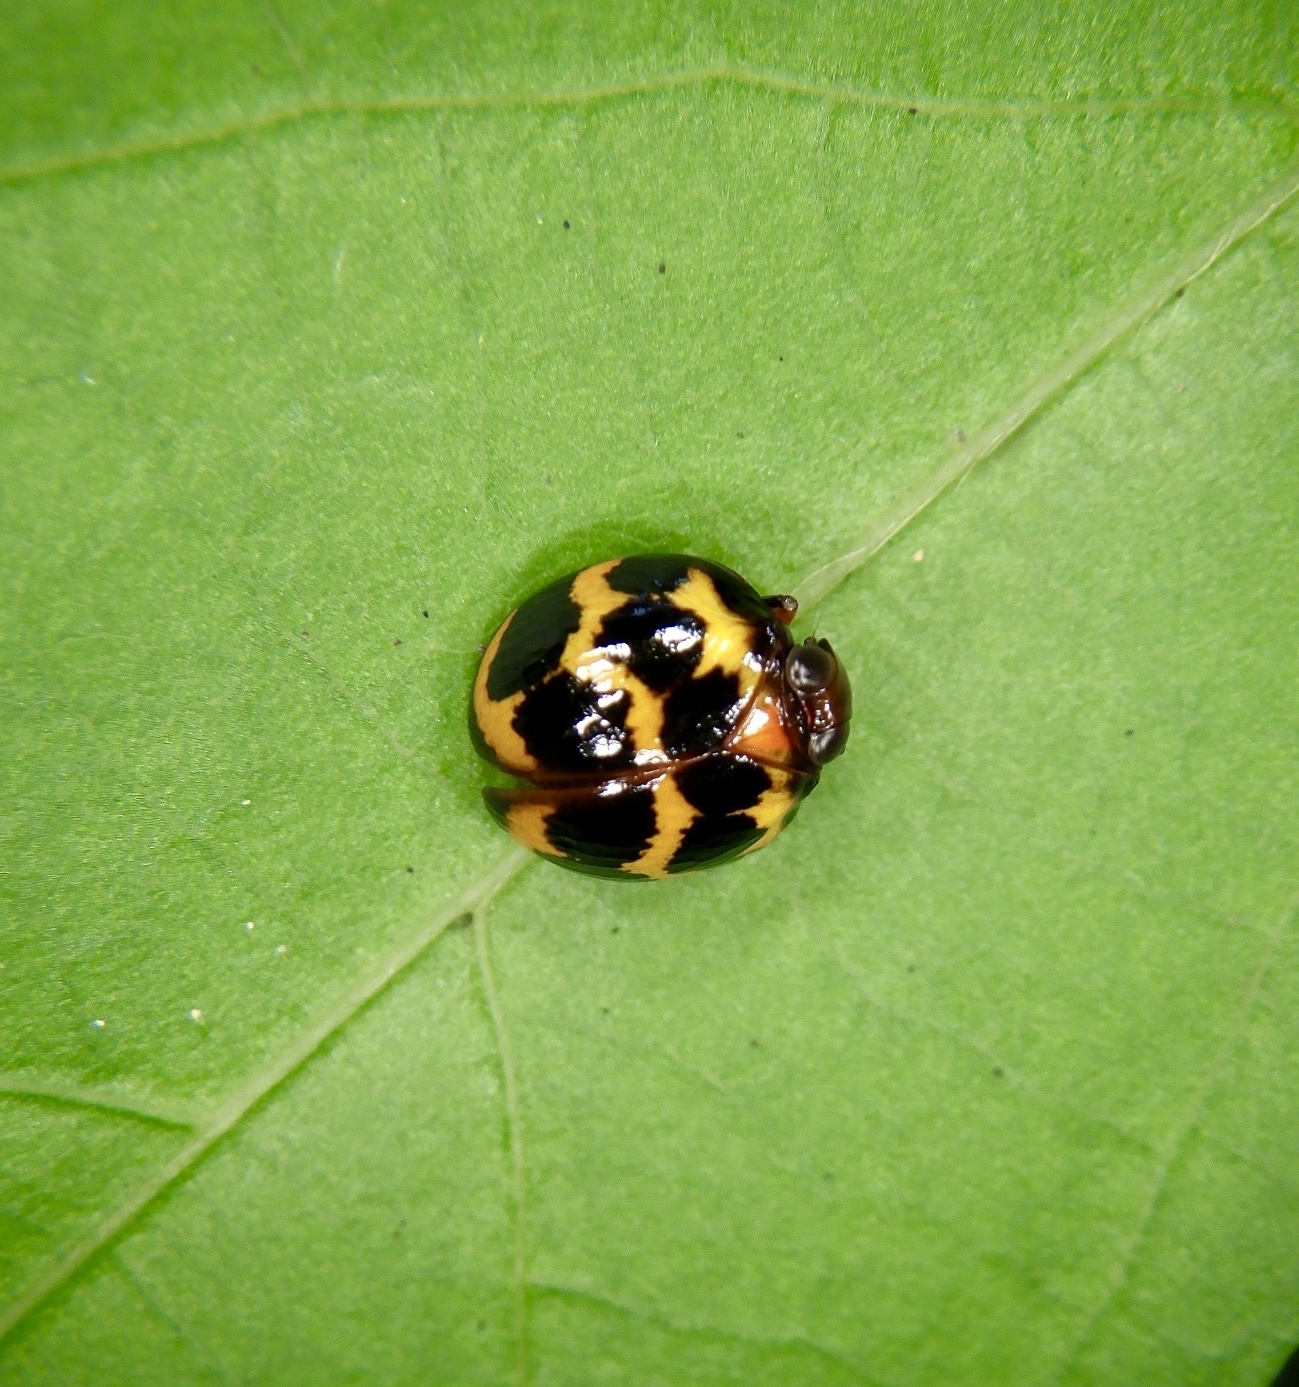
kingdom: Animalia
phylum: Arthropoda
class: Insecta
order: Hemiptera
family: Issidae
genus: Ishiharanus
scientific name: Ishiharanus iguchii
